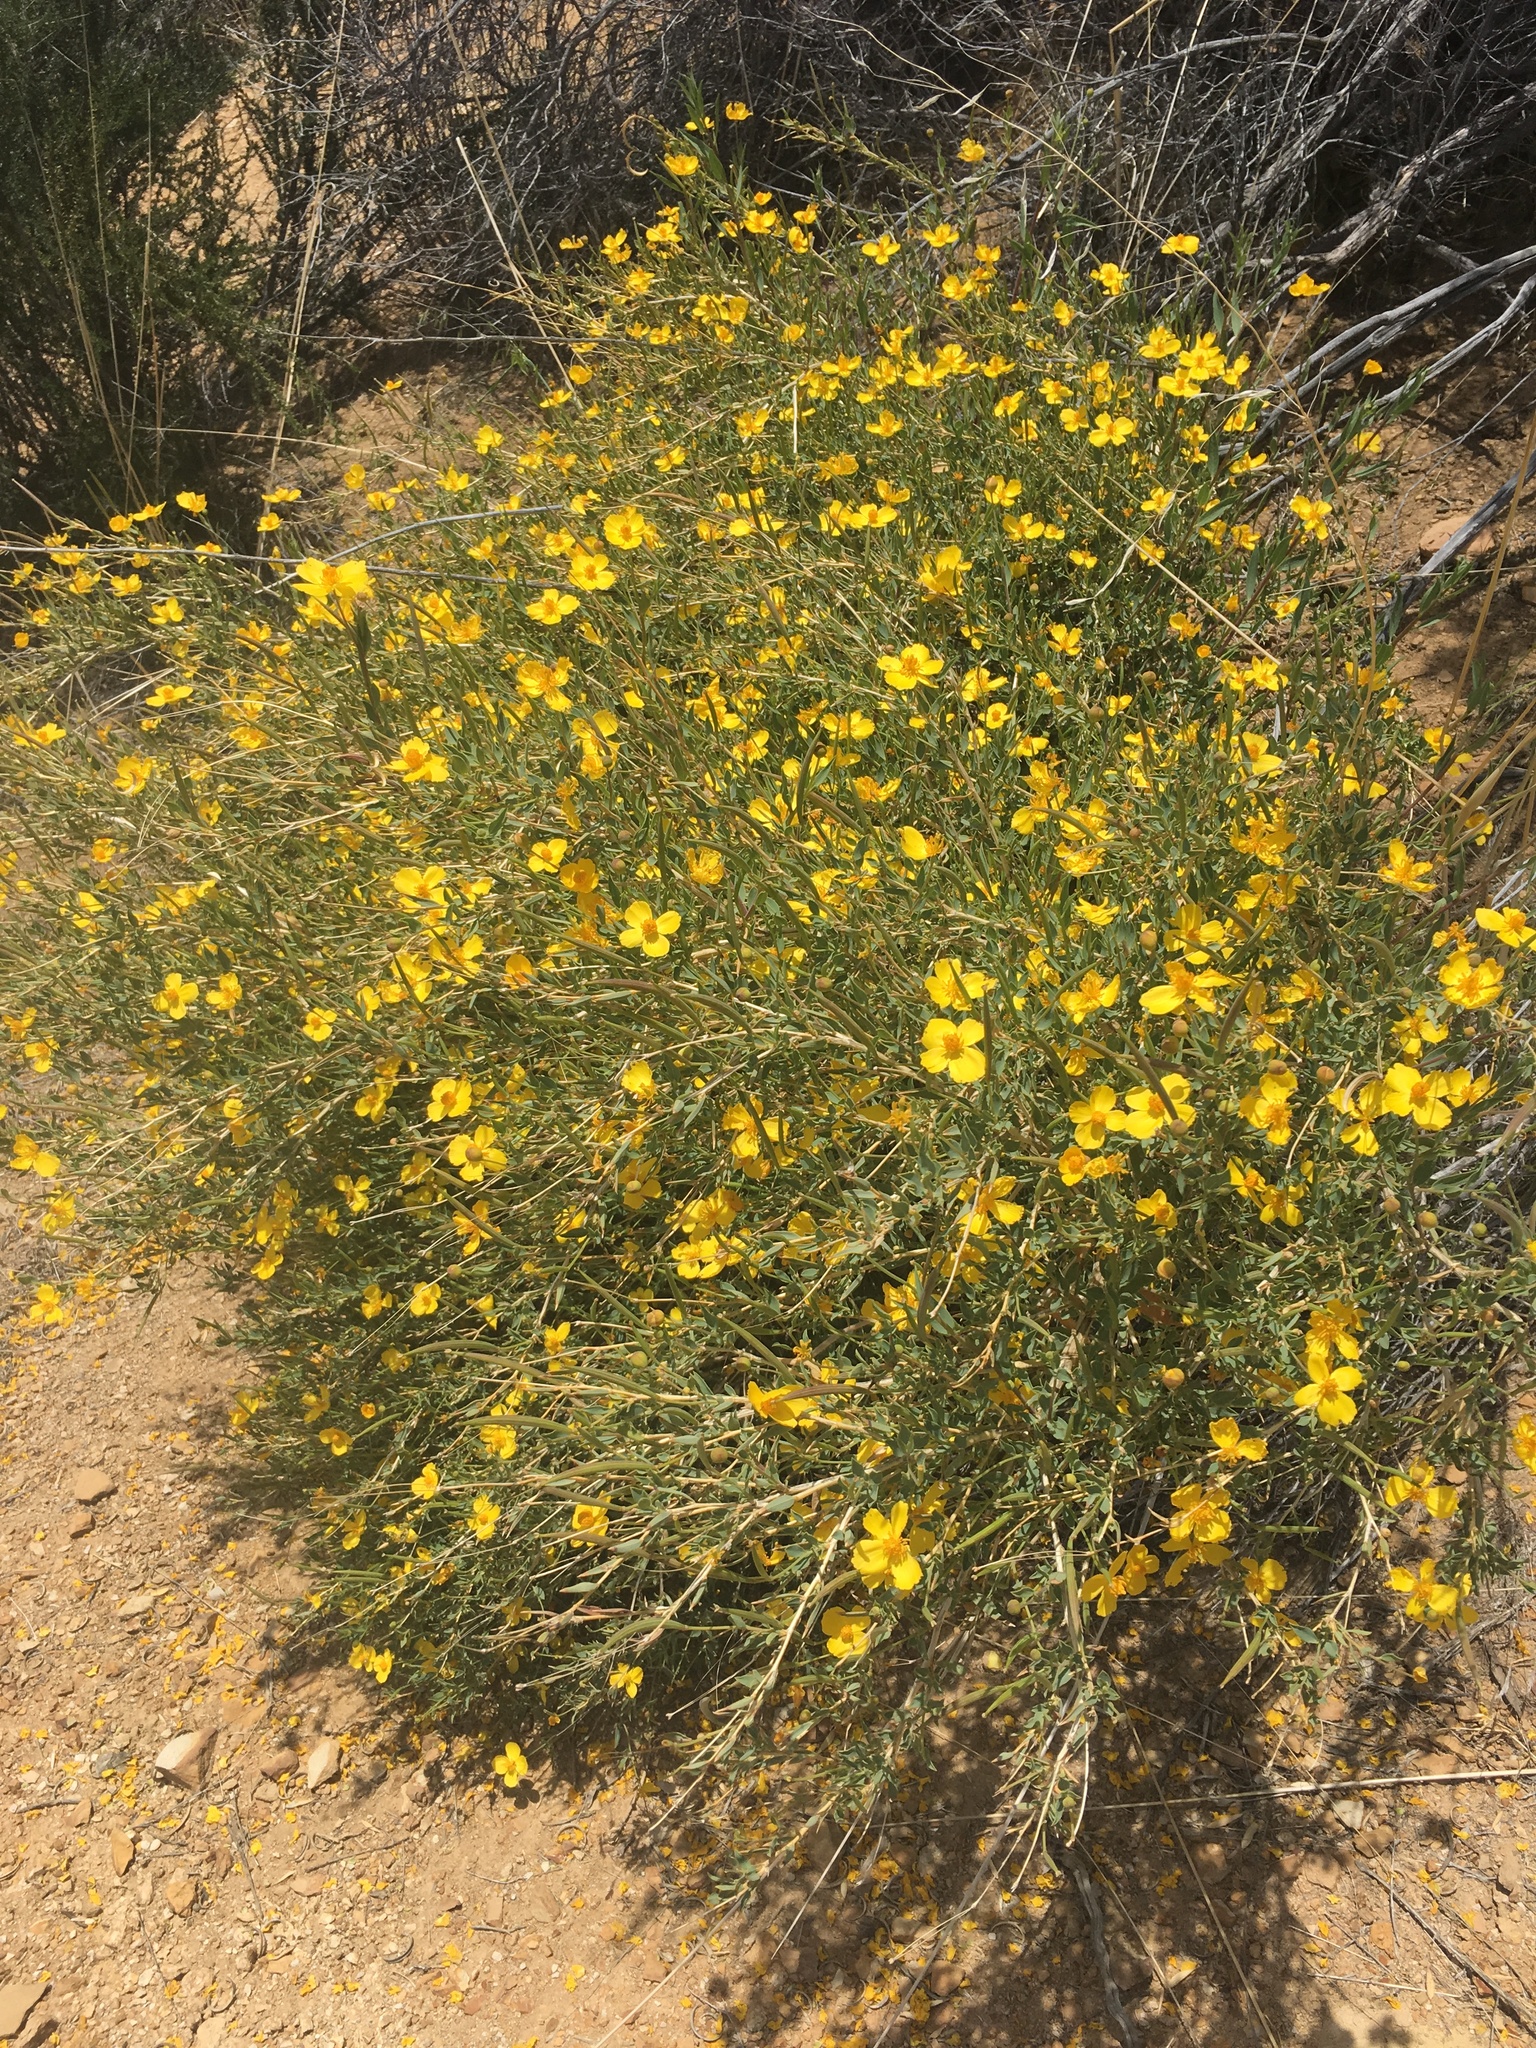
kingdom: Plantae
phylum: Tracheophyta
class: Magnoliopsida
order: Ranunculales
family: Papaveraceae
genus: Dendromecon
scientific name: Dendromecon rigida
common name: Tree poppy
